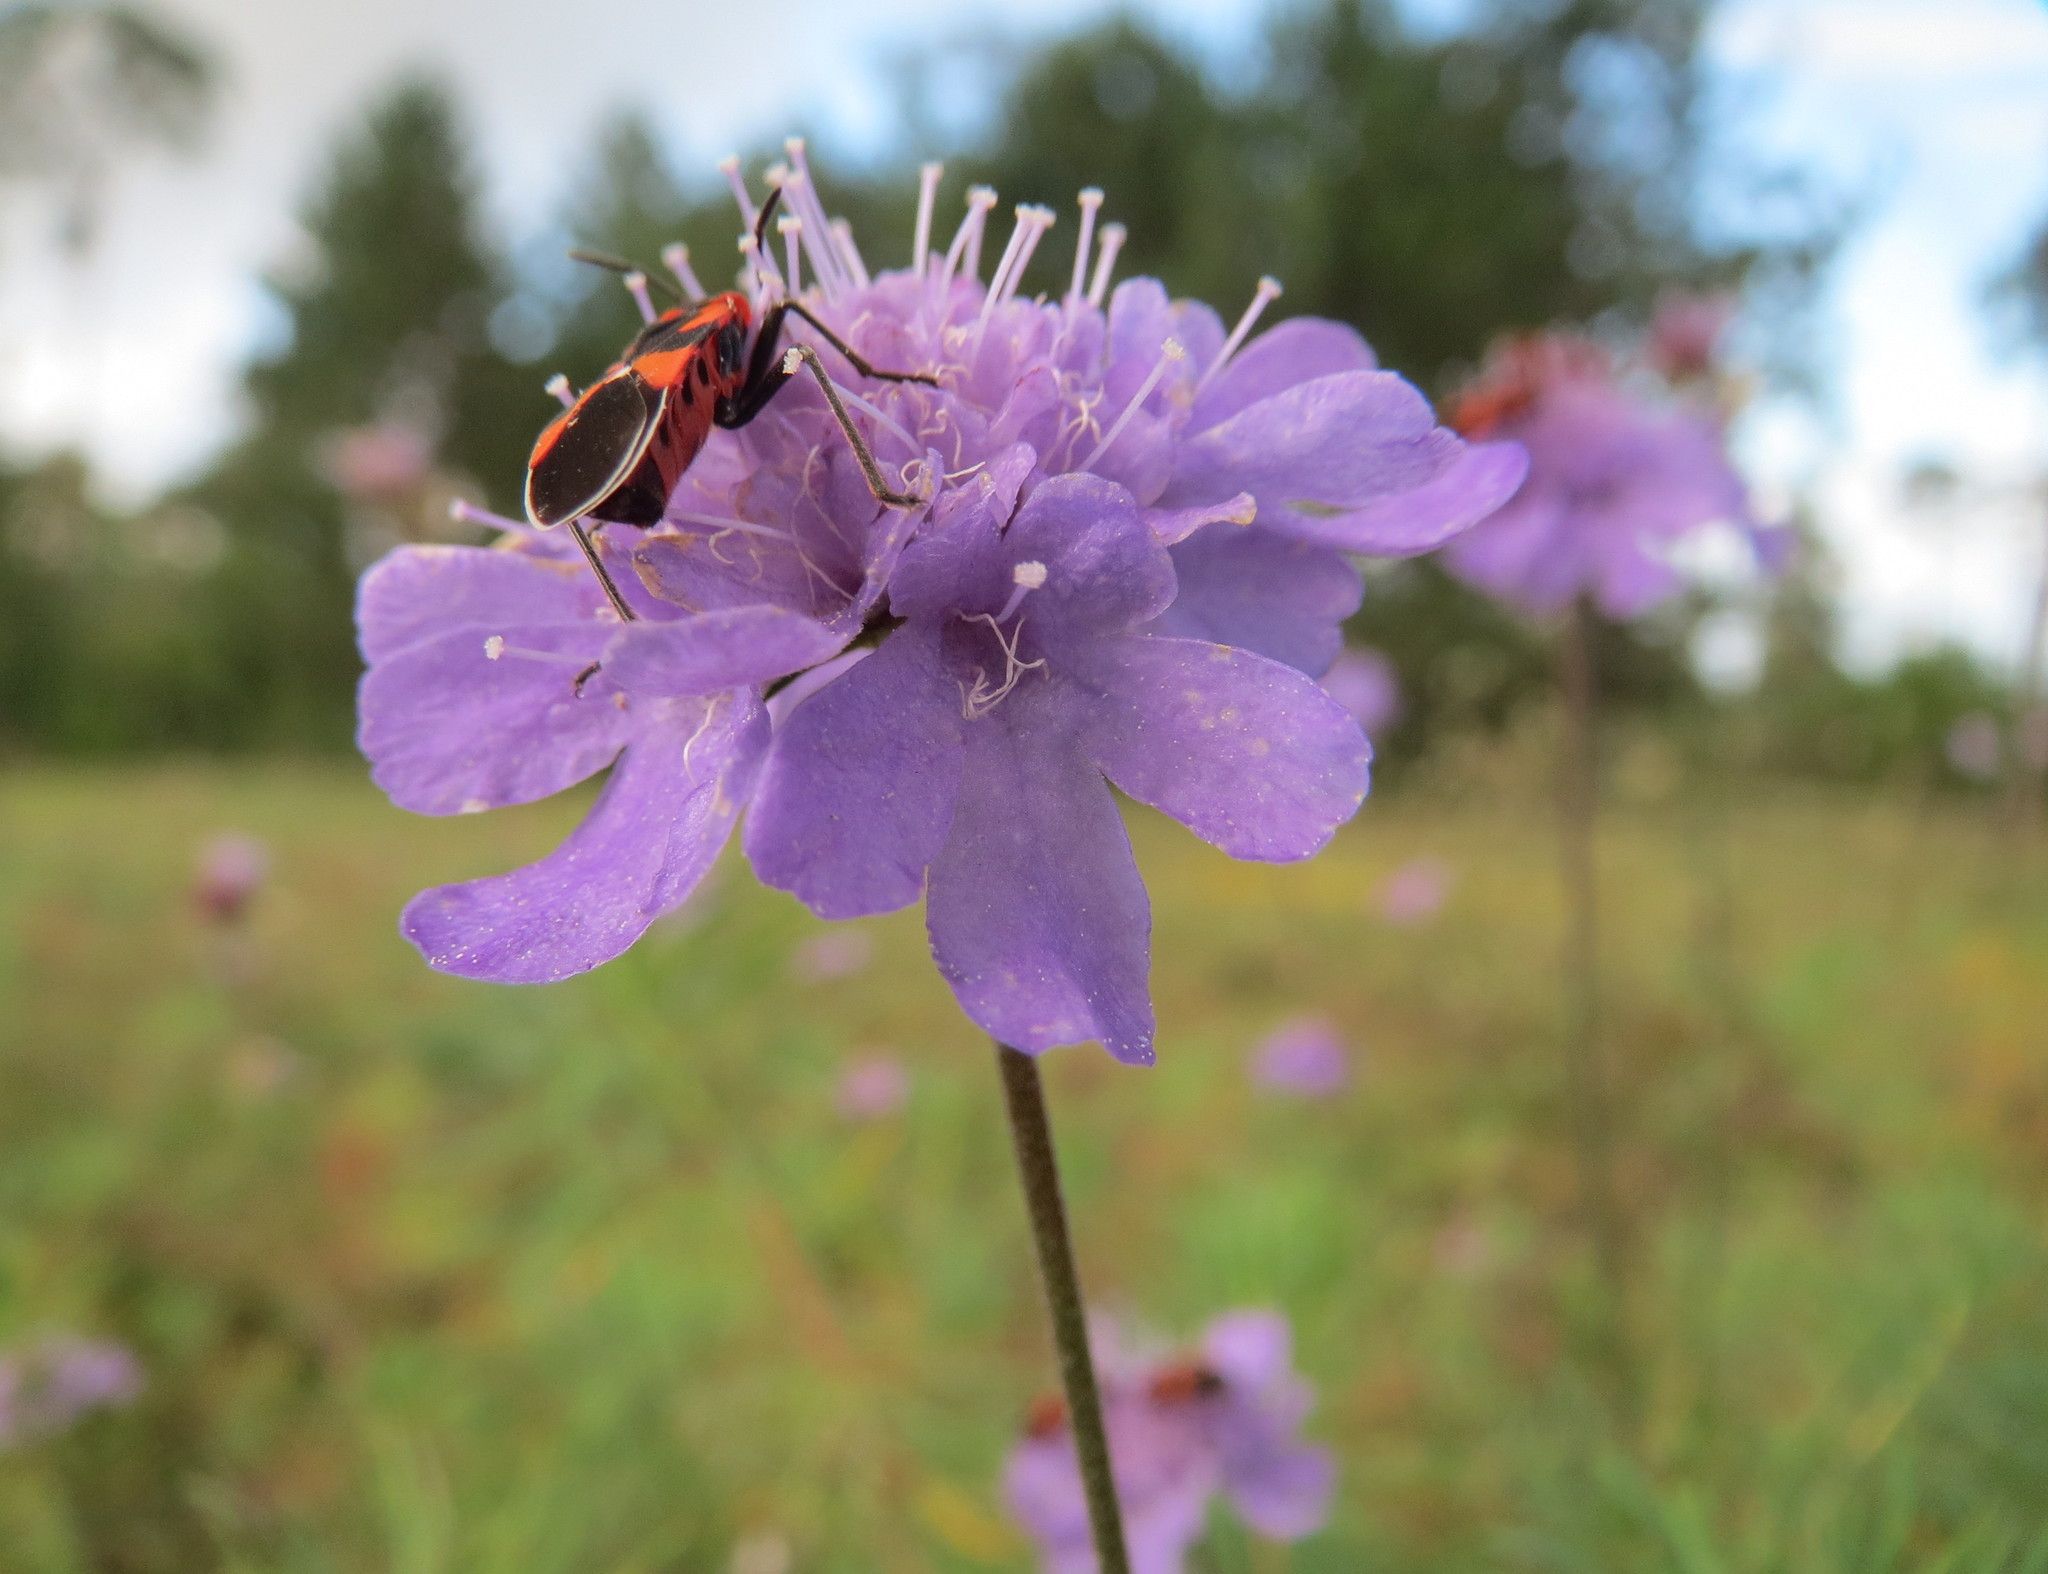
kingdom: Animalia
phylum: Arthropoda
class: Insecta
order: Hemiptera
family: Lygaeidae
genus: Tropidothorax
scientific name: Tropidothorax leucopterus
